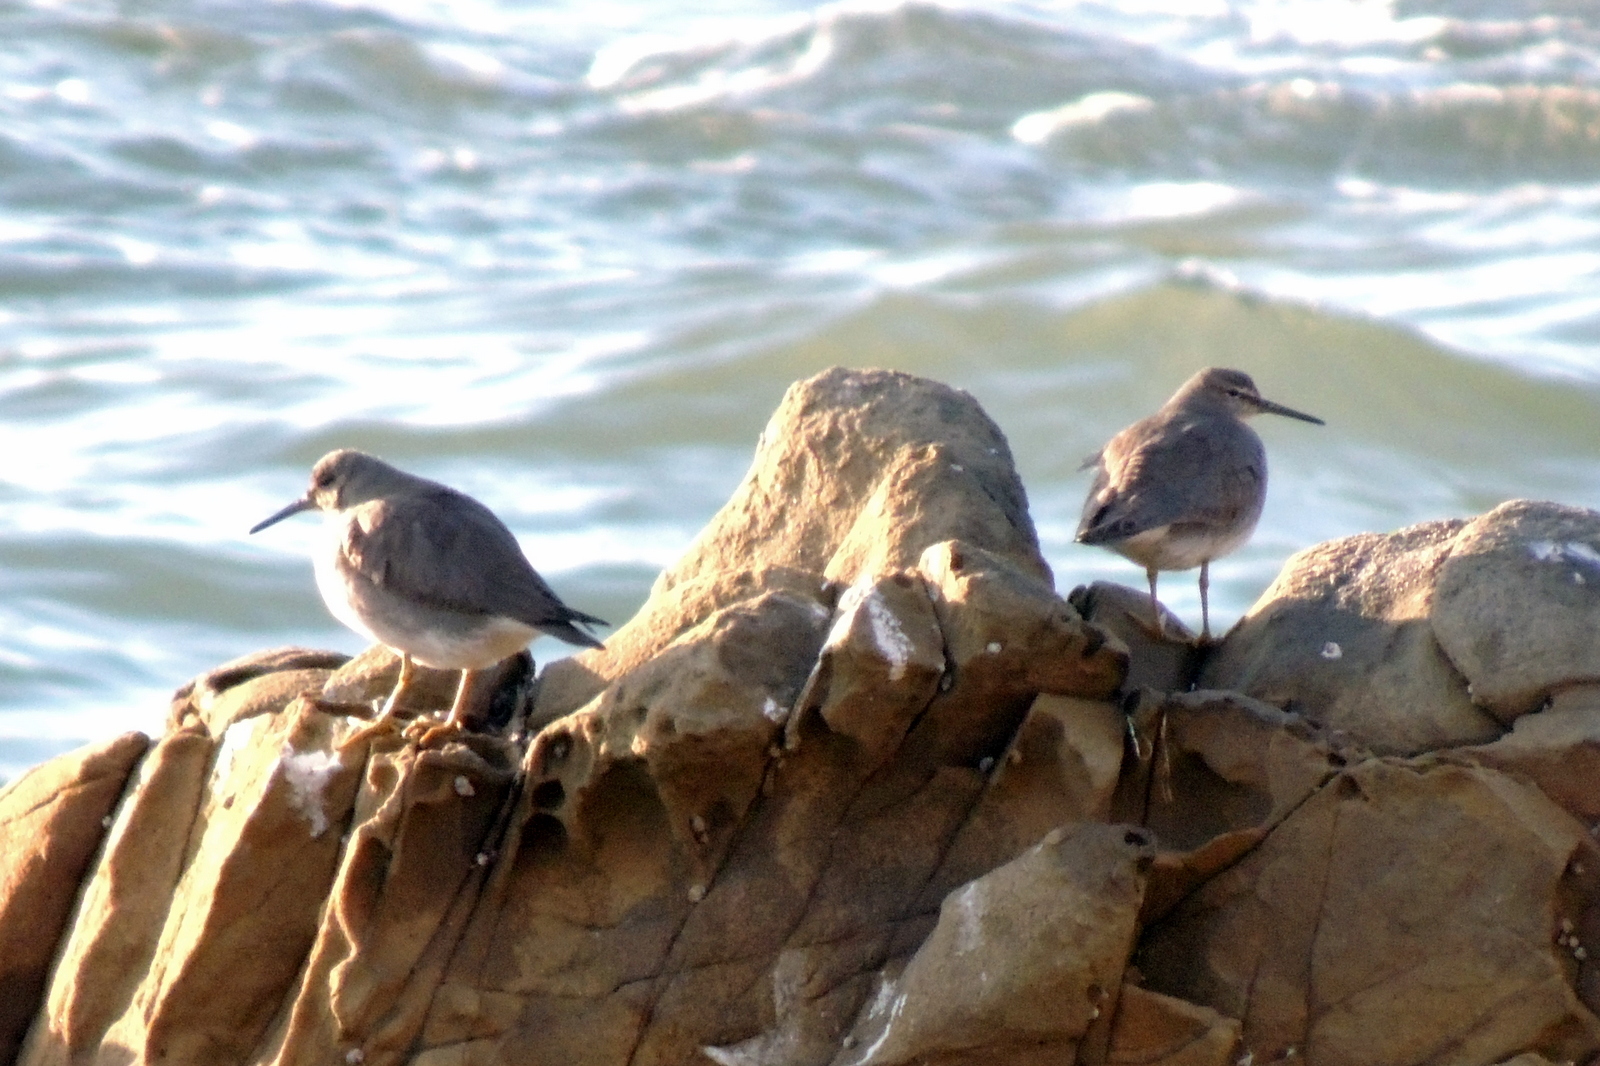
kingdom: Animalia
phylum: Chordata
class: Aves
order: Charadriiformes
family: Scolopacidae
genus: Tringa
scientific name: Tringa incana
